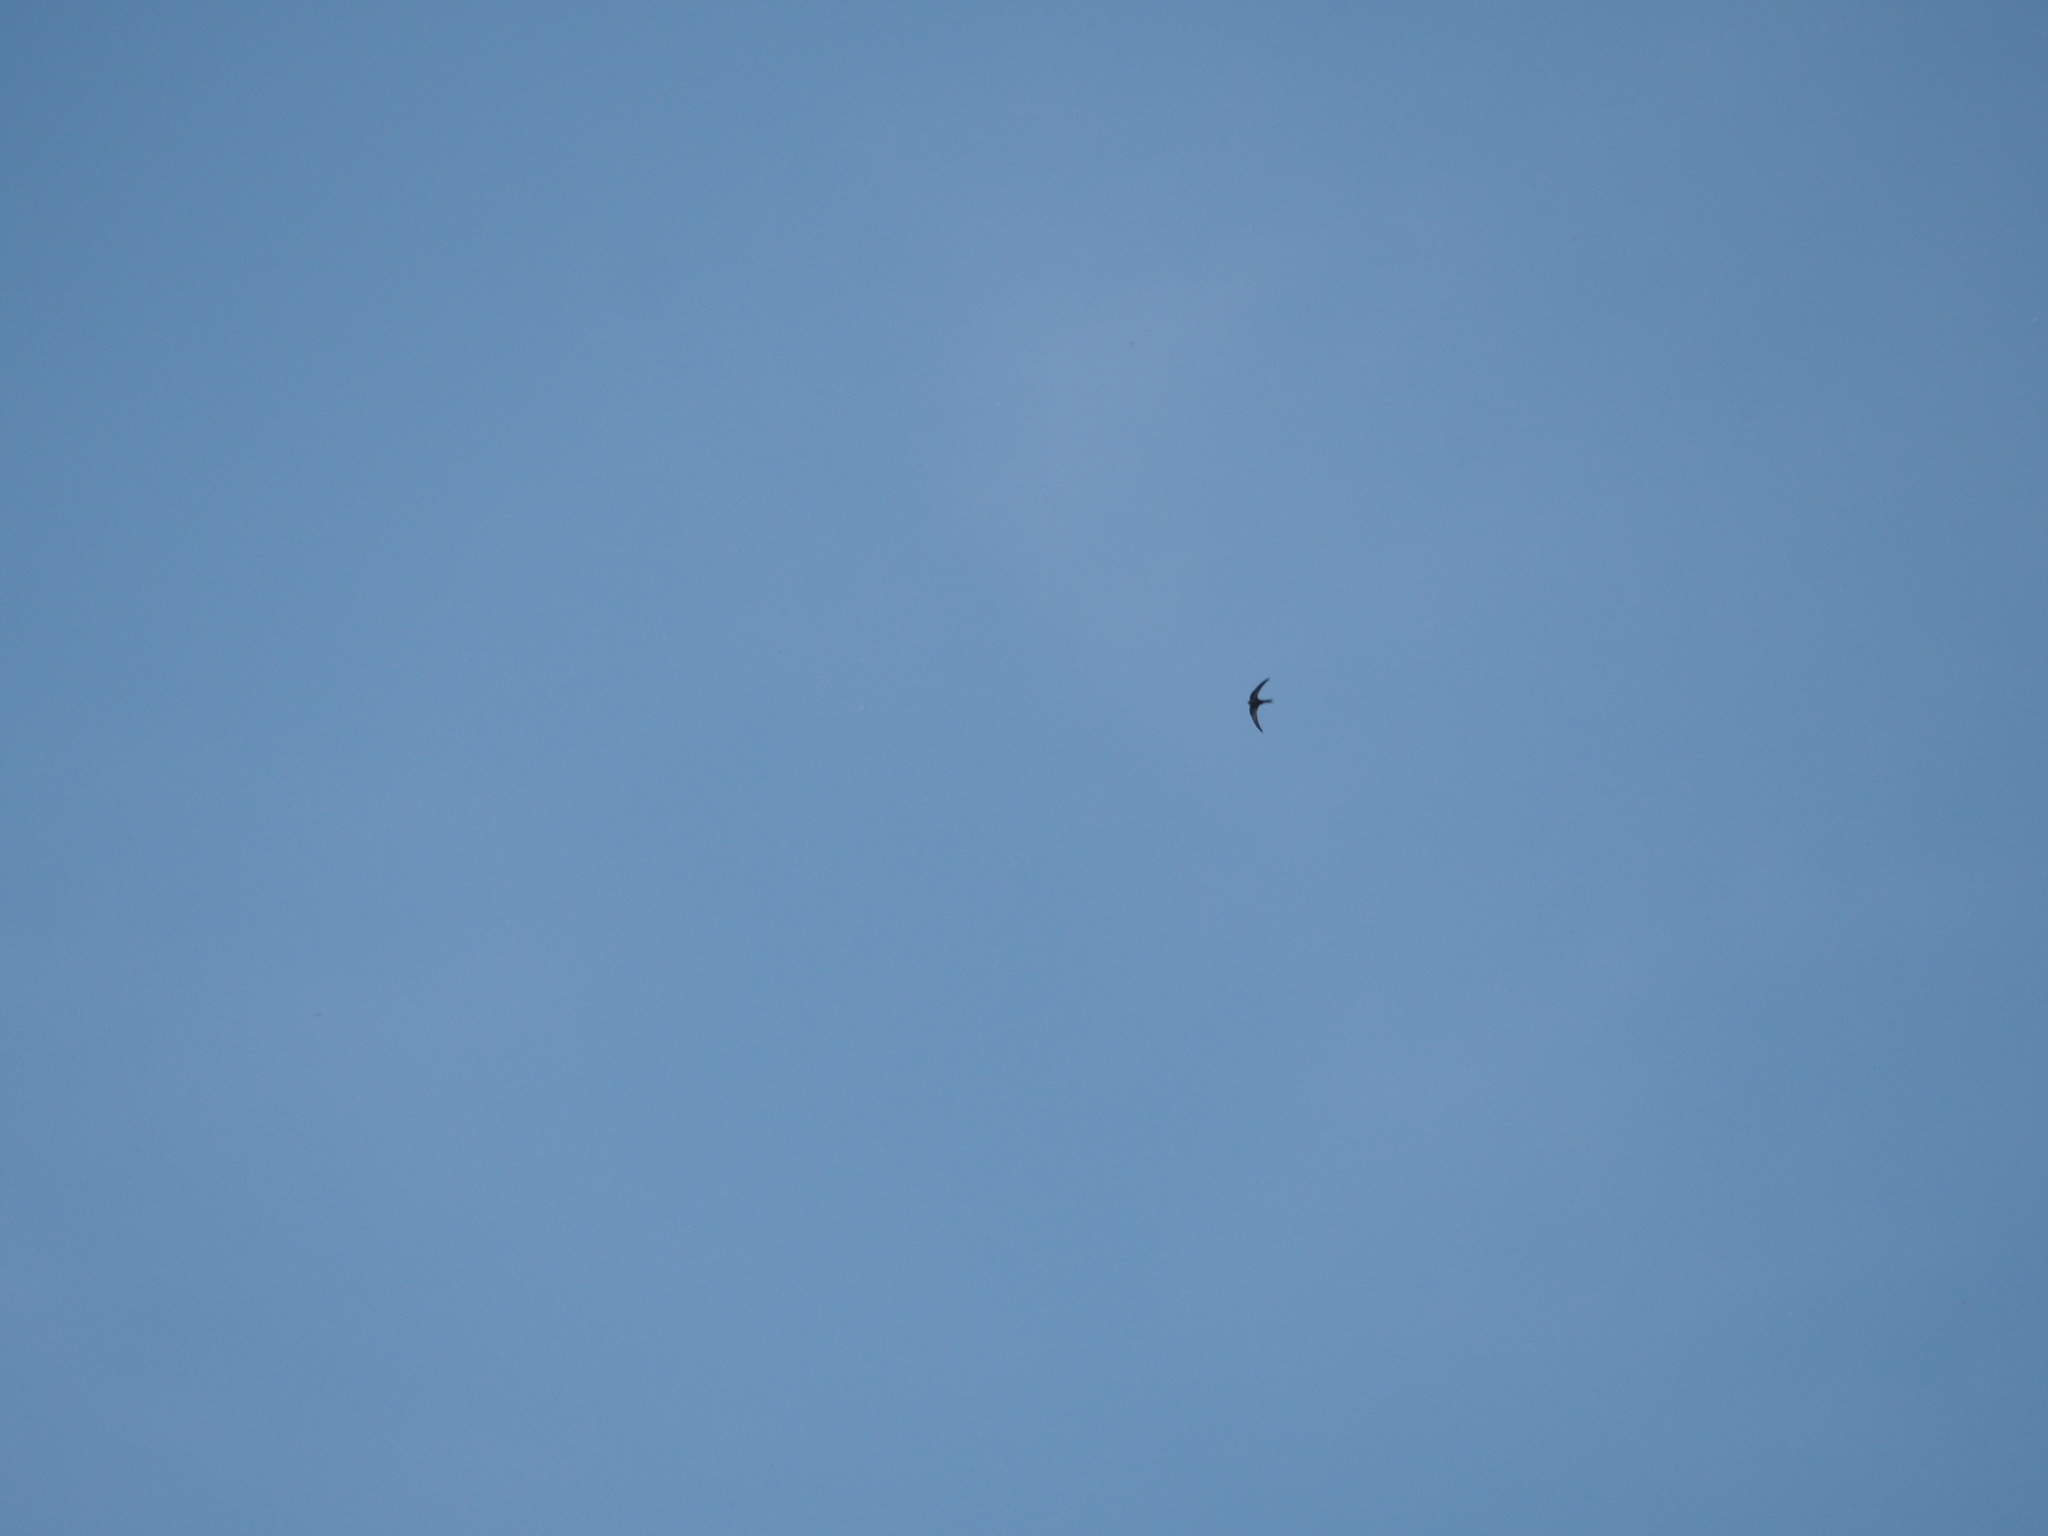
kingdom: Animalia
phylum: Chordata
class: Aves
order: Apodiformes
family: Apodidae
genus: Apus
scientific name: Apus apus
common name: Common swift
